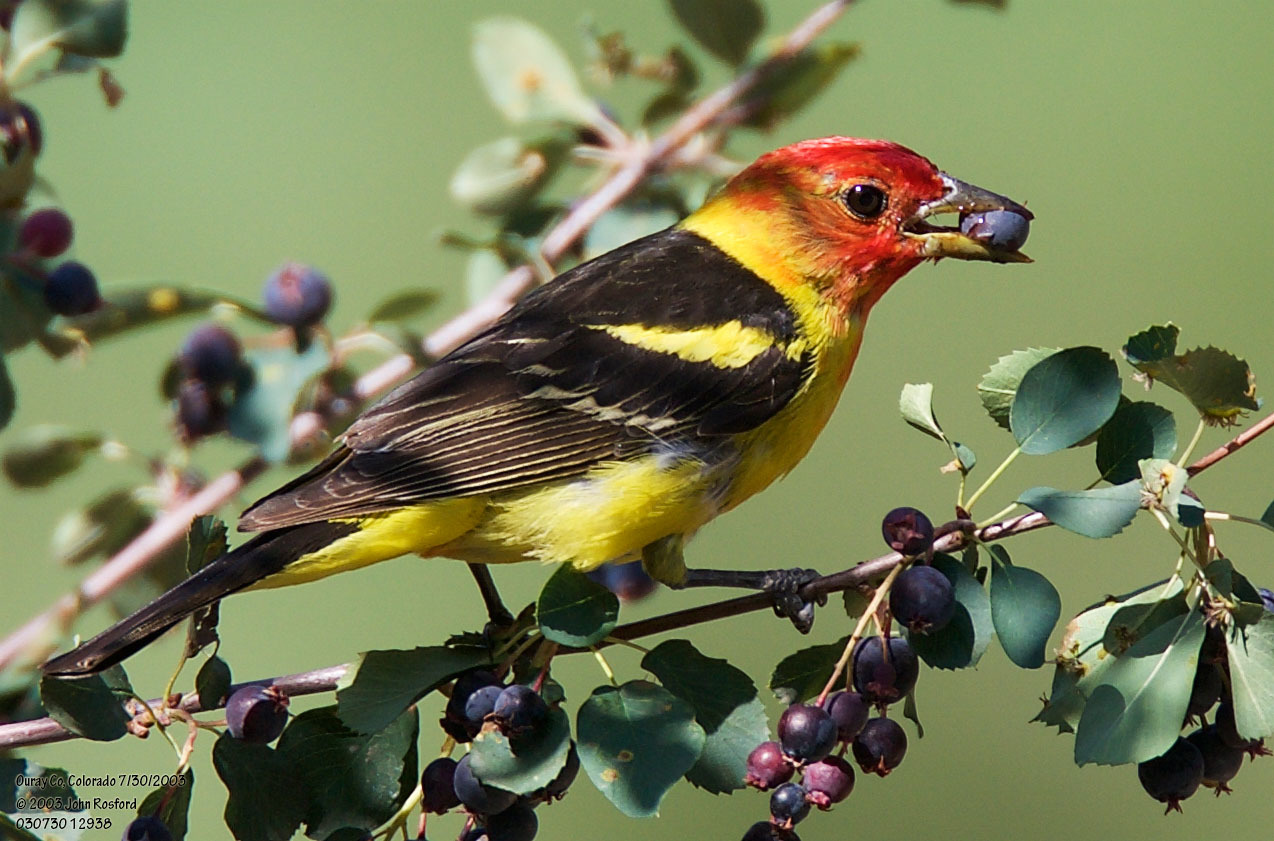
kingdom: Animalia
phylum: Chordata
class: Aves
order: Passeriformes
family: Cardinalidae
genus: Piranga
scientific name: Piranga ludoviciana
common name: Western tanager
